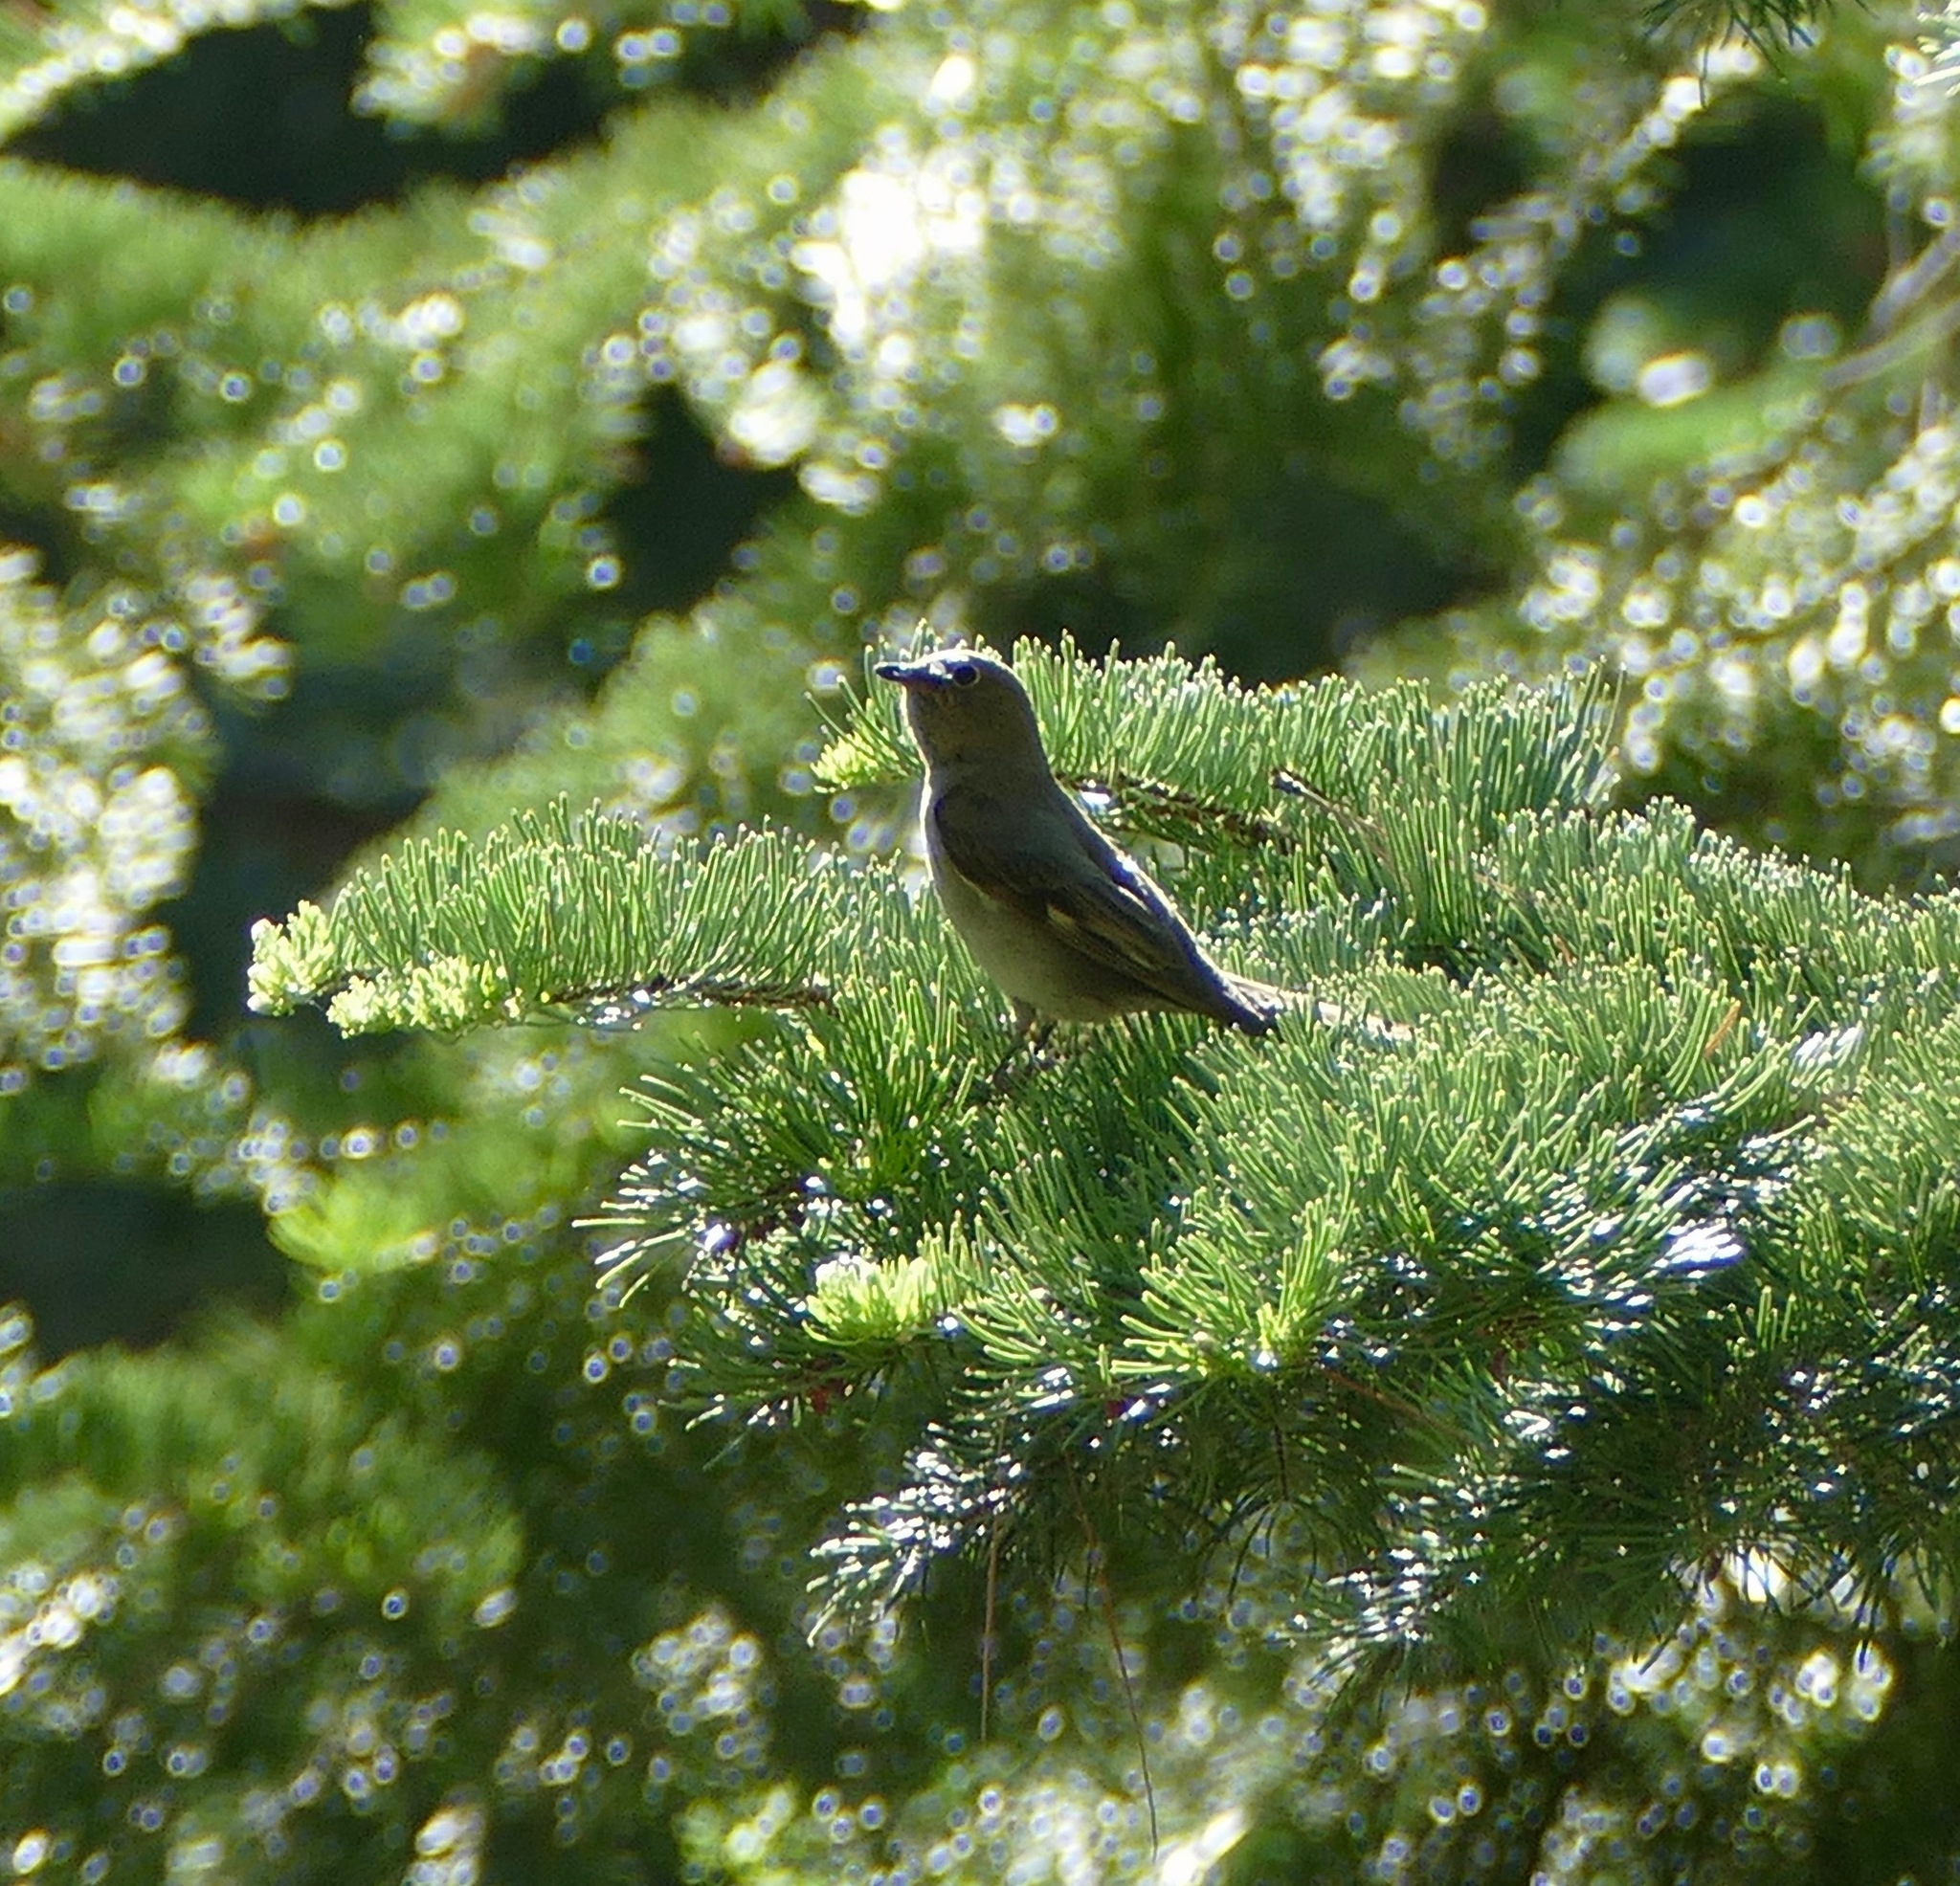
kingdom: Animalia
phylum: Chordata
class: Aves
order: Passeriformes
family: Turdidae
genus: Myadestes
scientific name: Myadestes townsendi
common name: Townsend's solitaire
